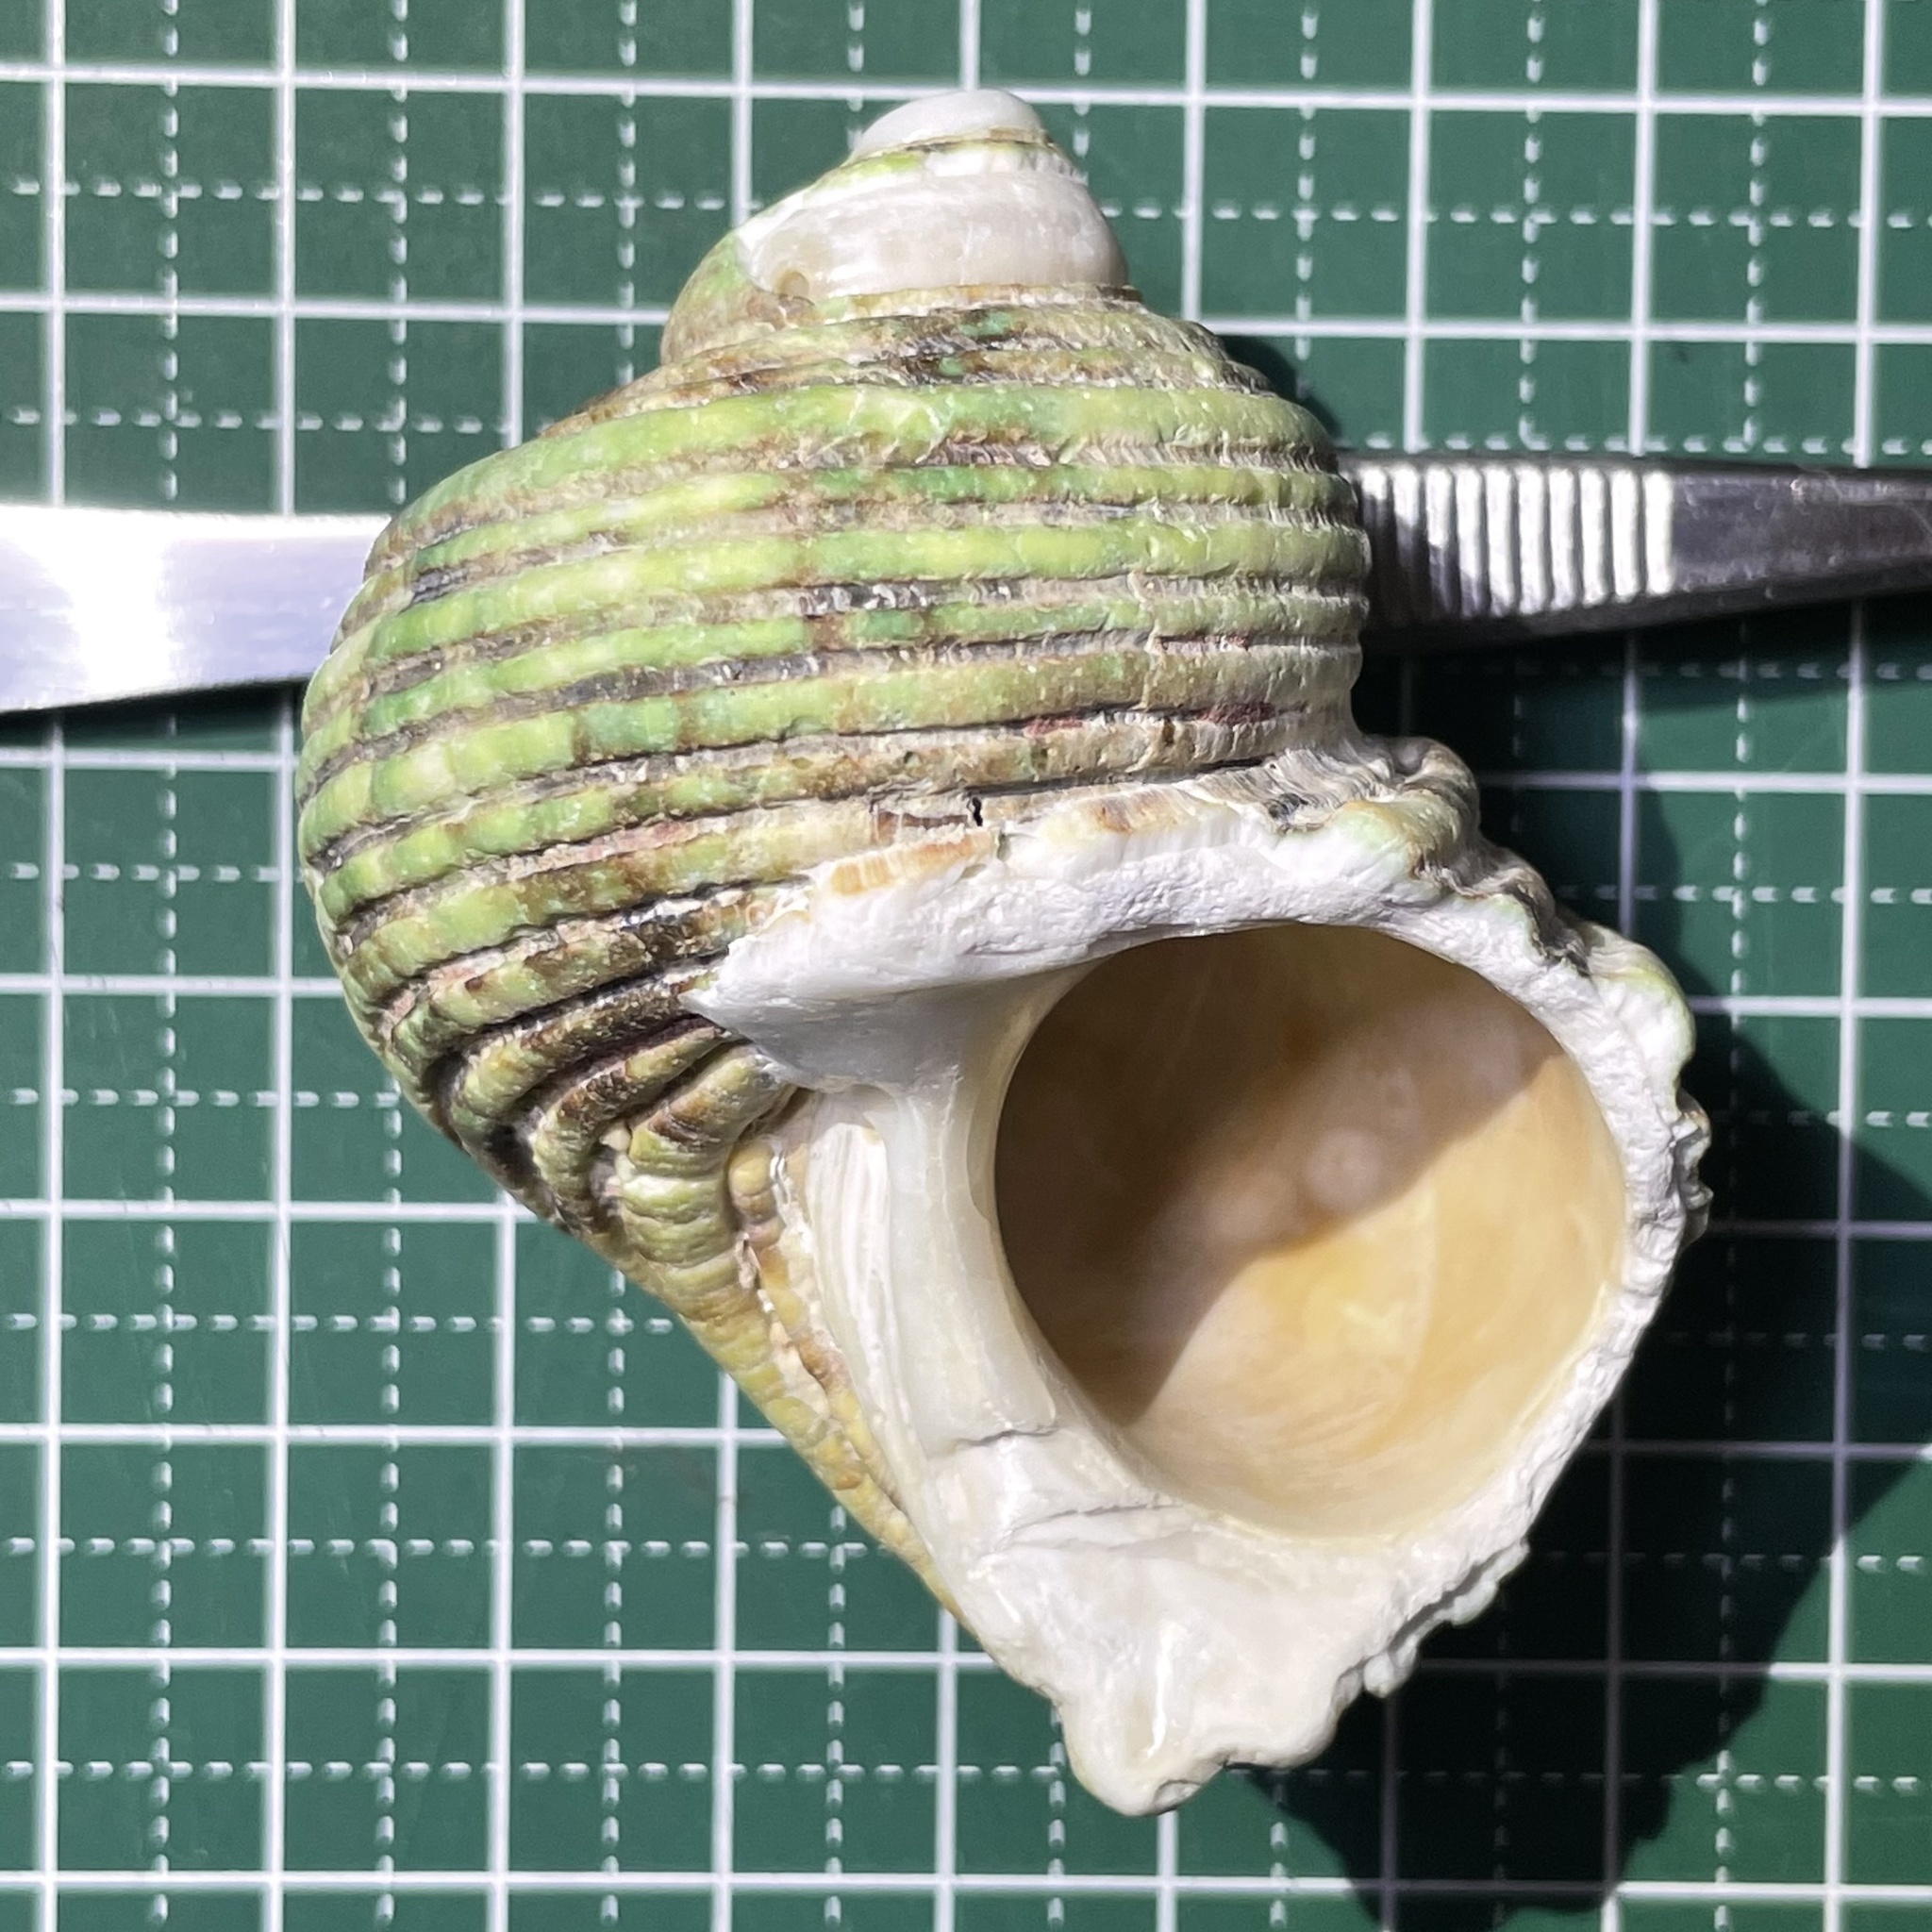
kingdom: Animalia
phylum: Mollusca
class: Gastropoda
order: Trochida
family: Turbinidae
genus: Turbo
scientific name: Turbo argyrostomus
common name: Silver-mouthed turban
